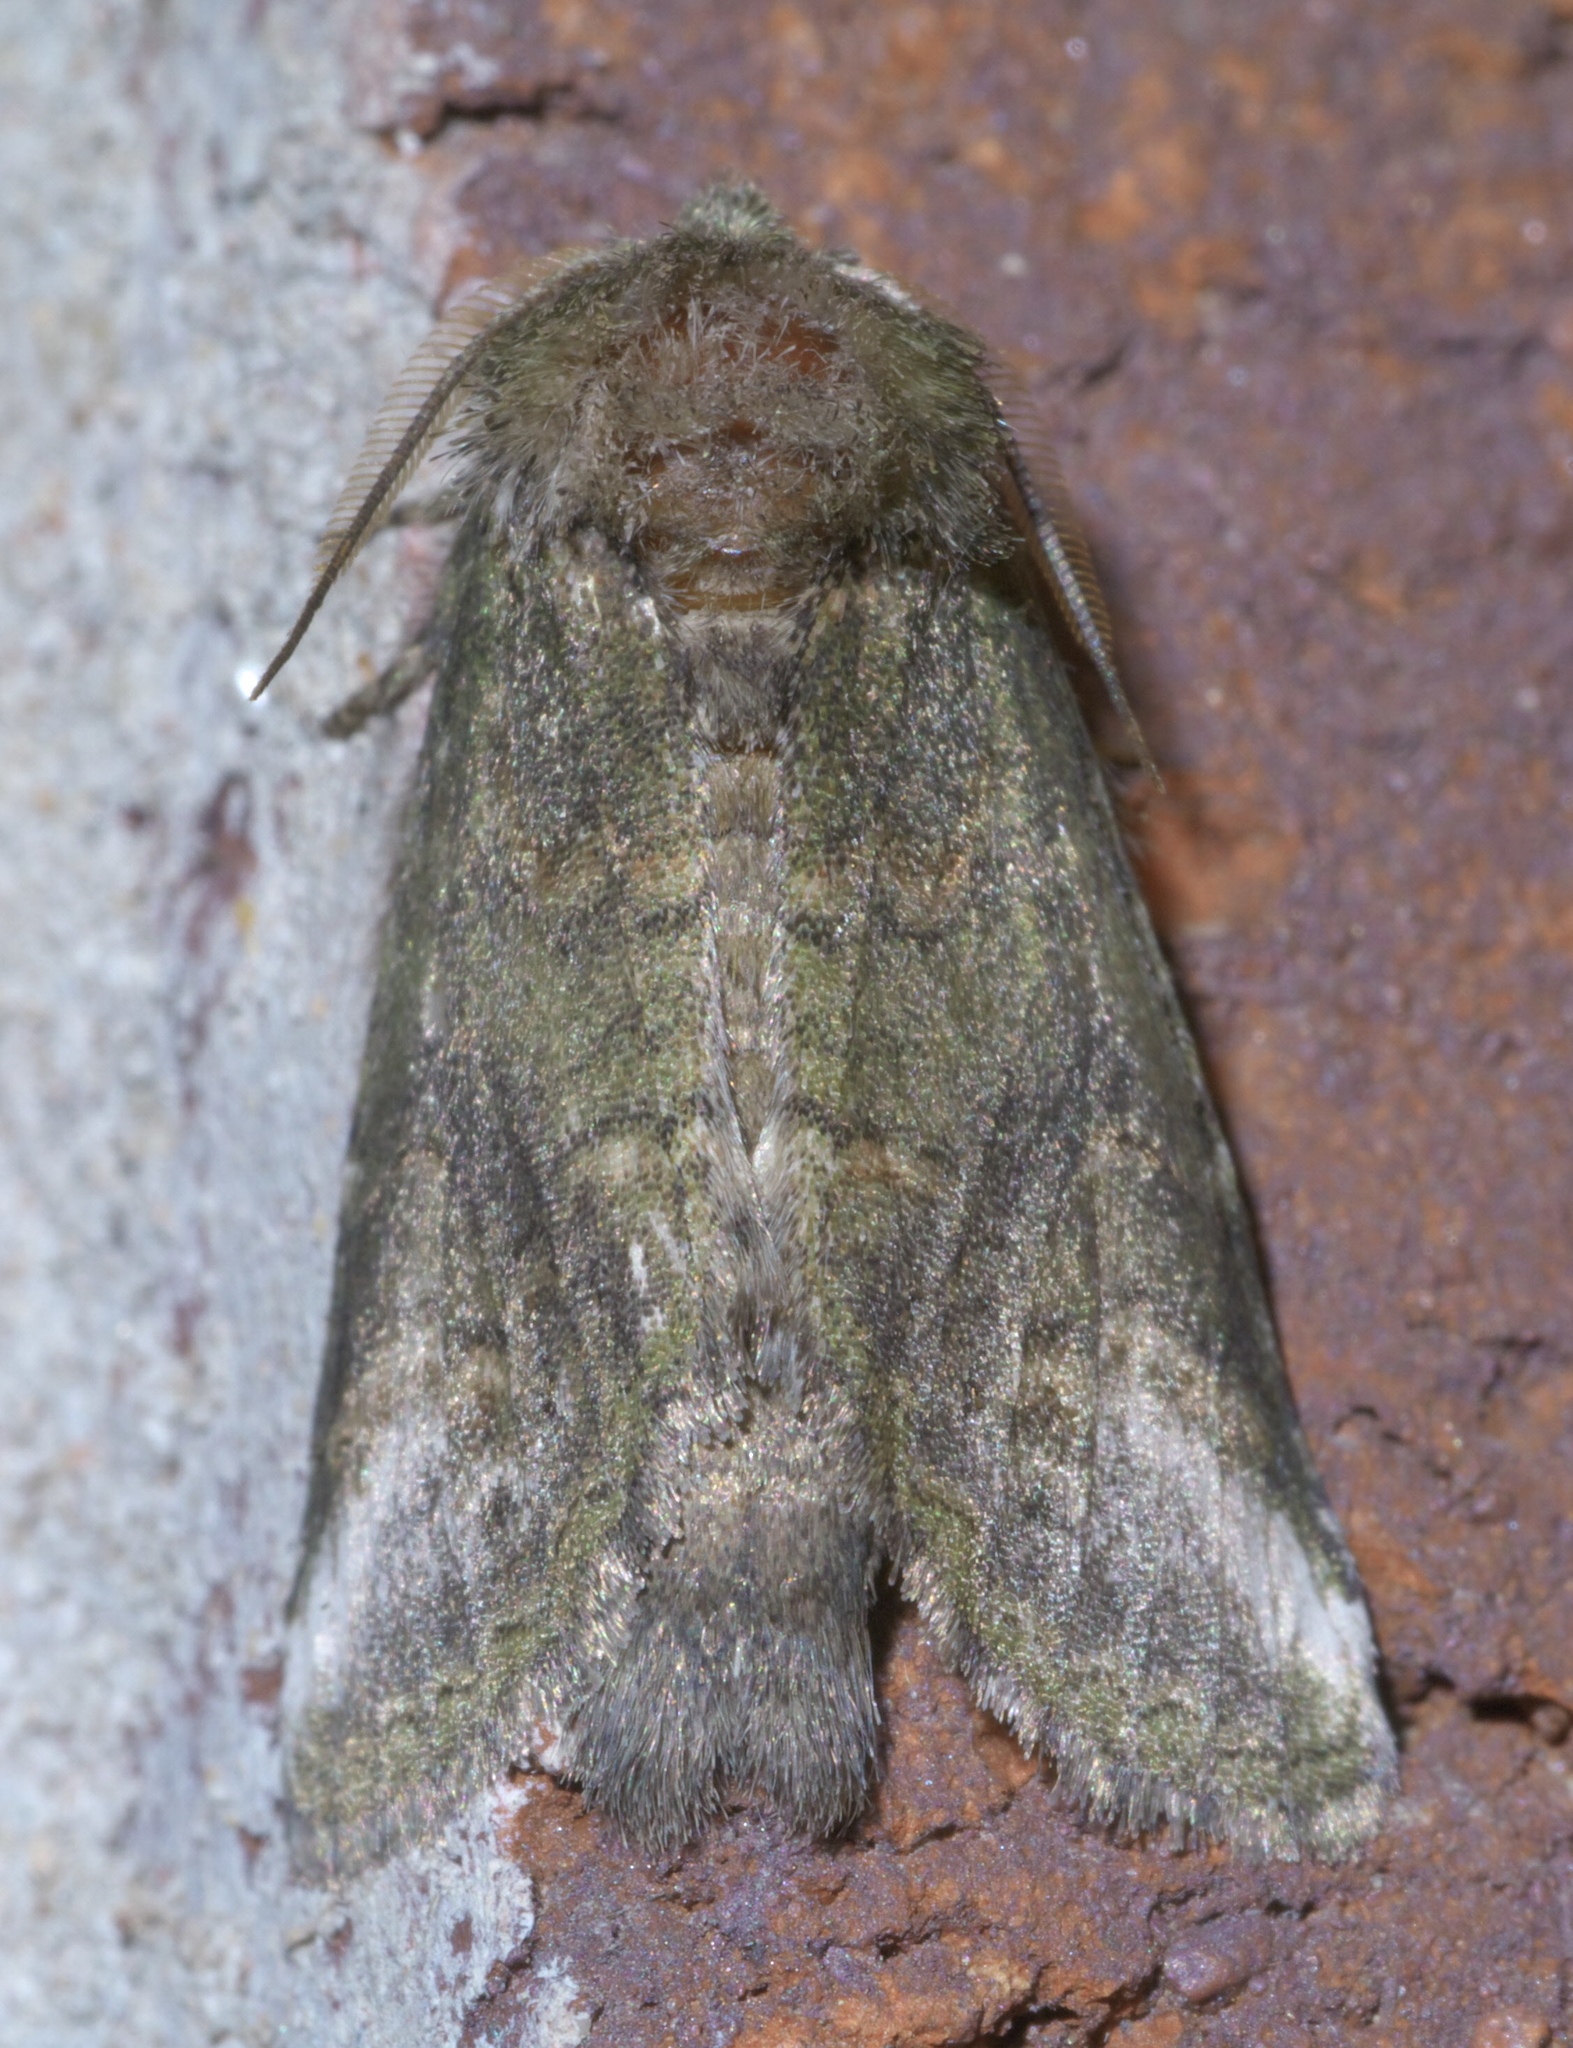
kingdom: Animalia
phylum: Arthropoda
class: Insecta
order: Lepidoptera
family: Notodontidae
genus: Rifargia
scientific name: Rifargia
